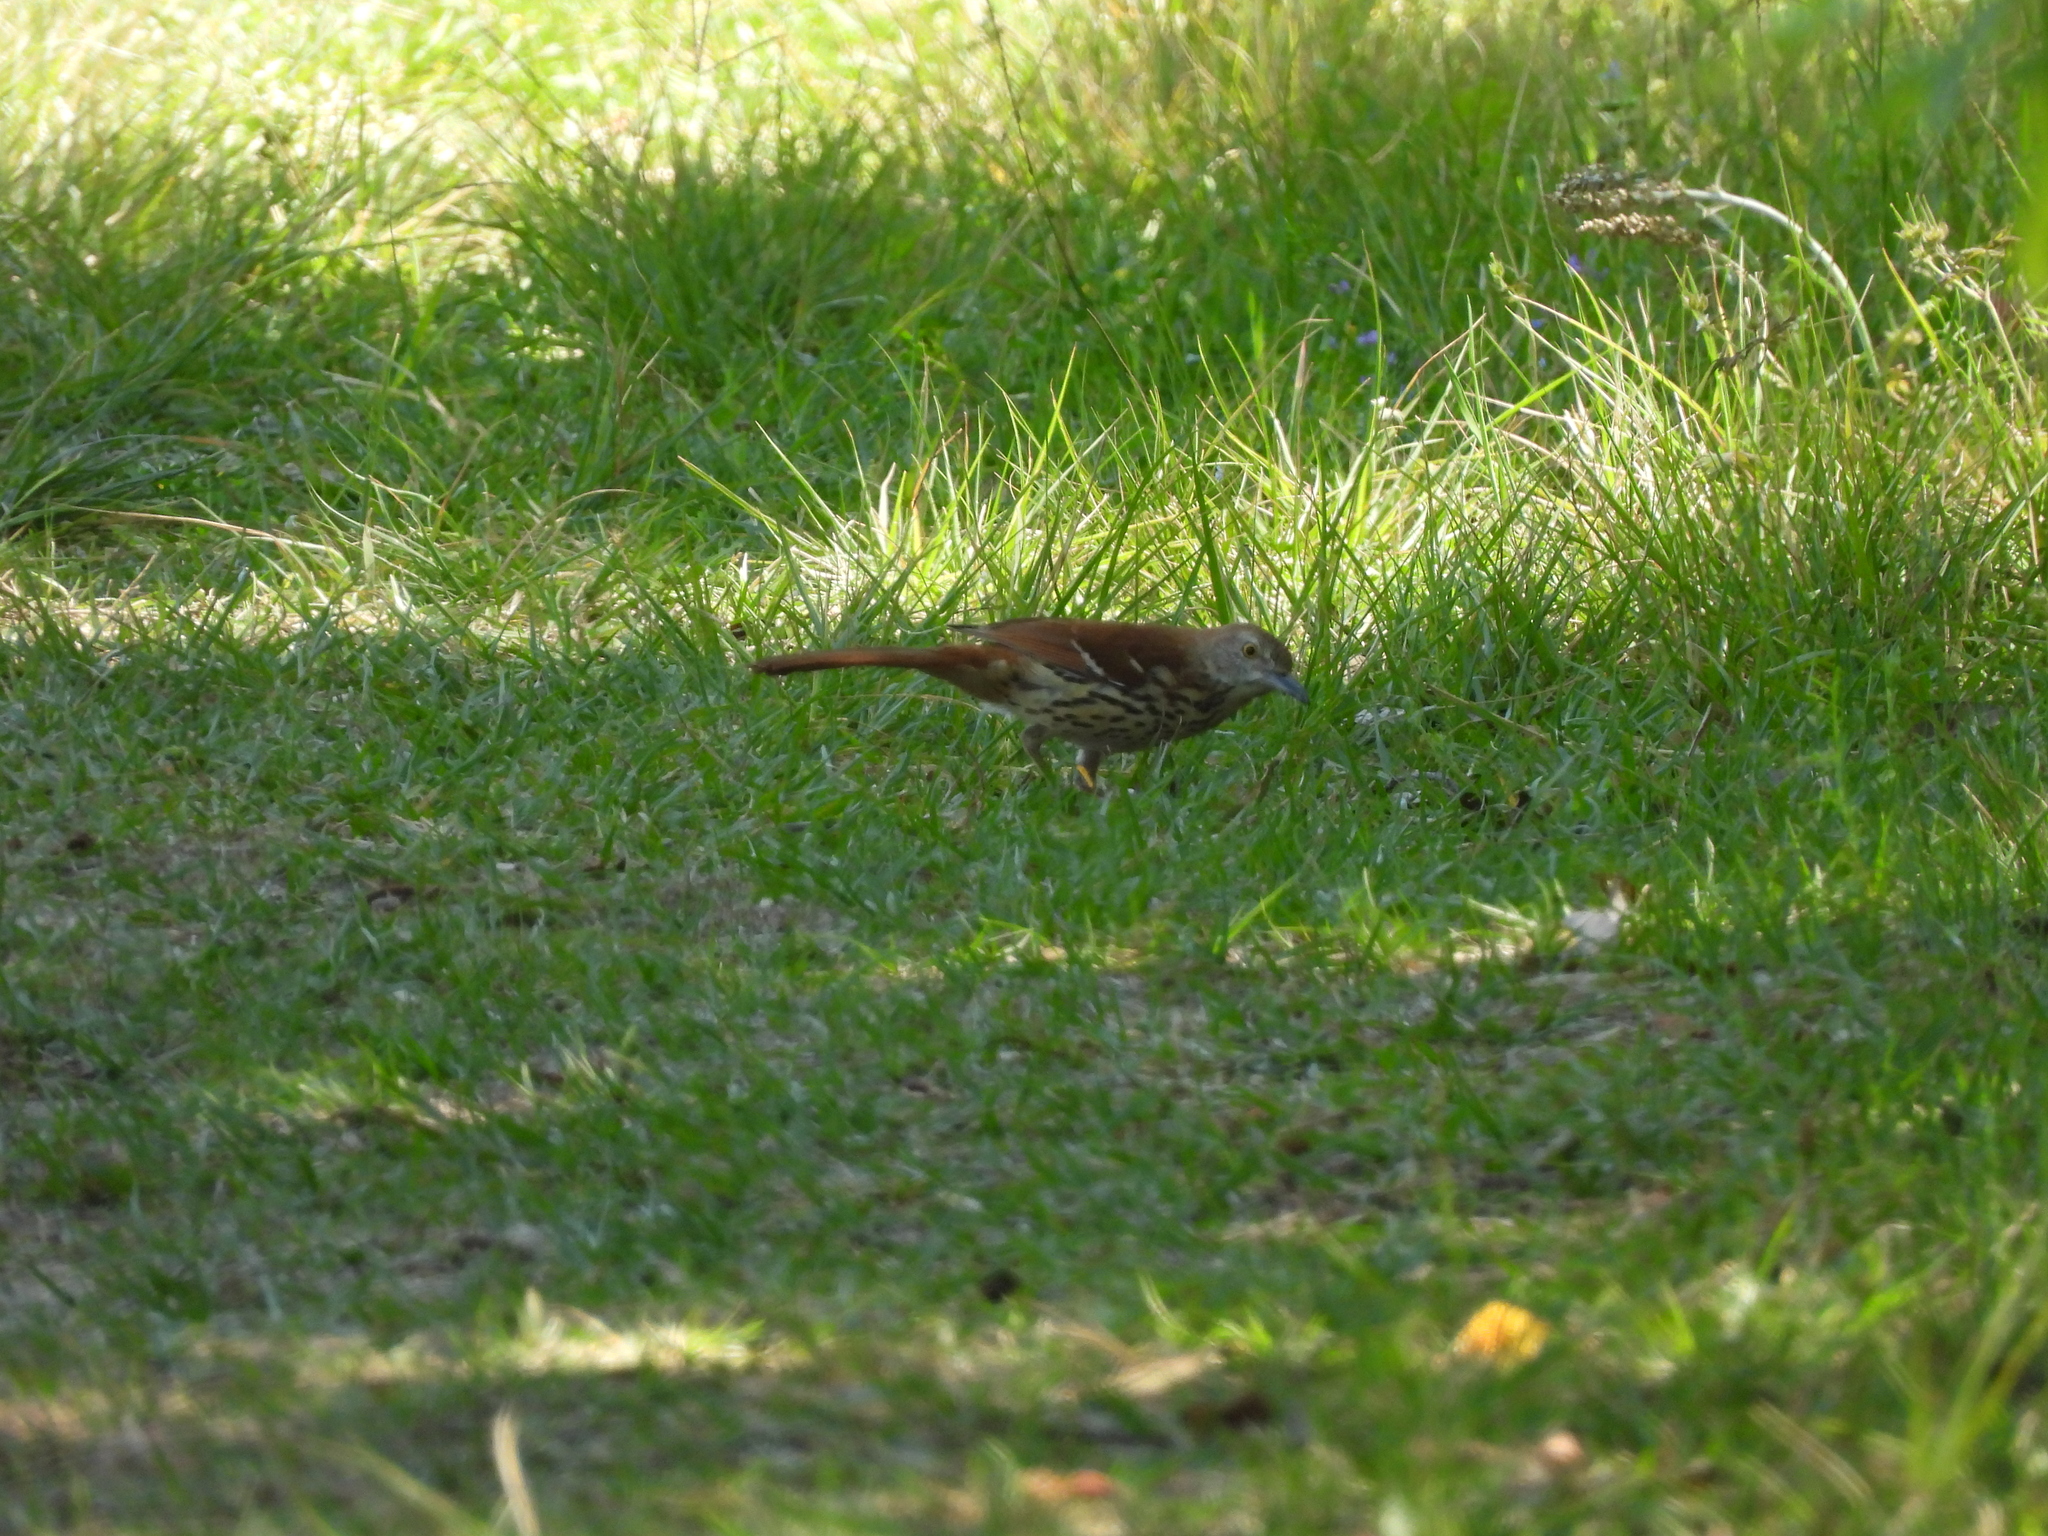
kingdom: Animalia
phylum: Chordata
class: Aves
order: Passeriformes
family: Mimidae
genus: Toxostoma
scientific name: Toxostoma rufum
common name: Brown thrasher
